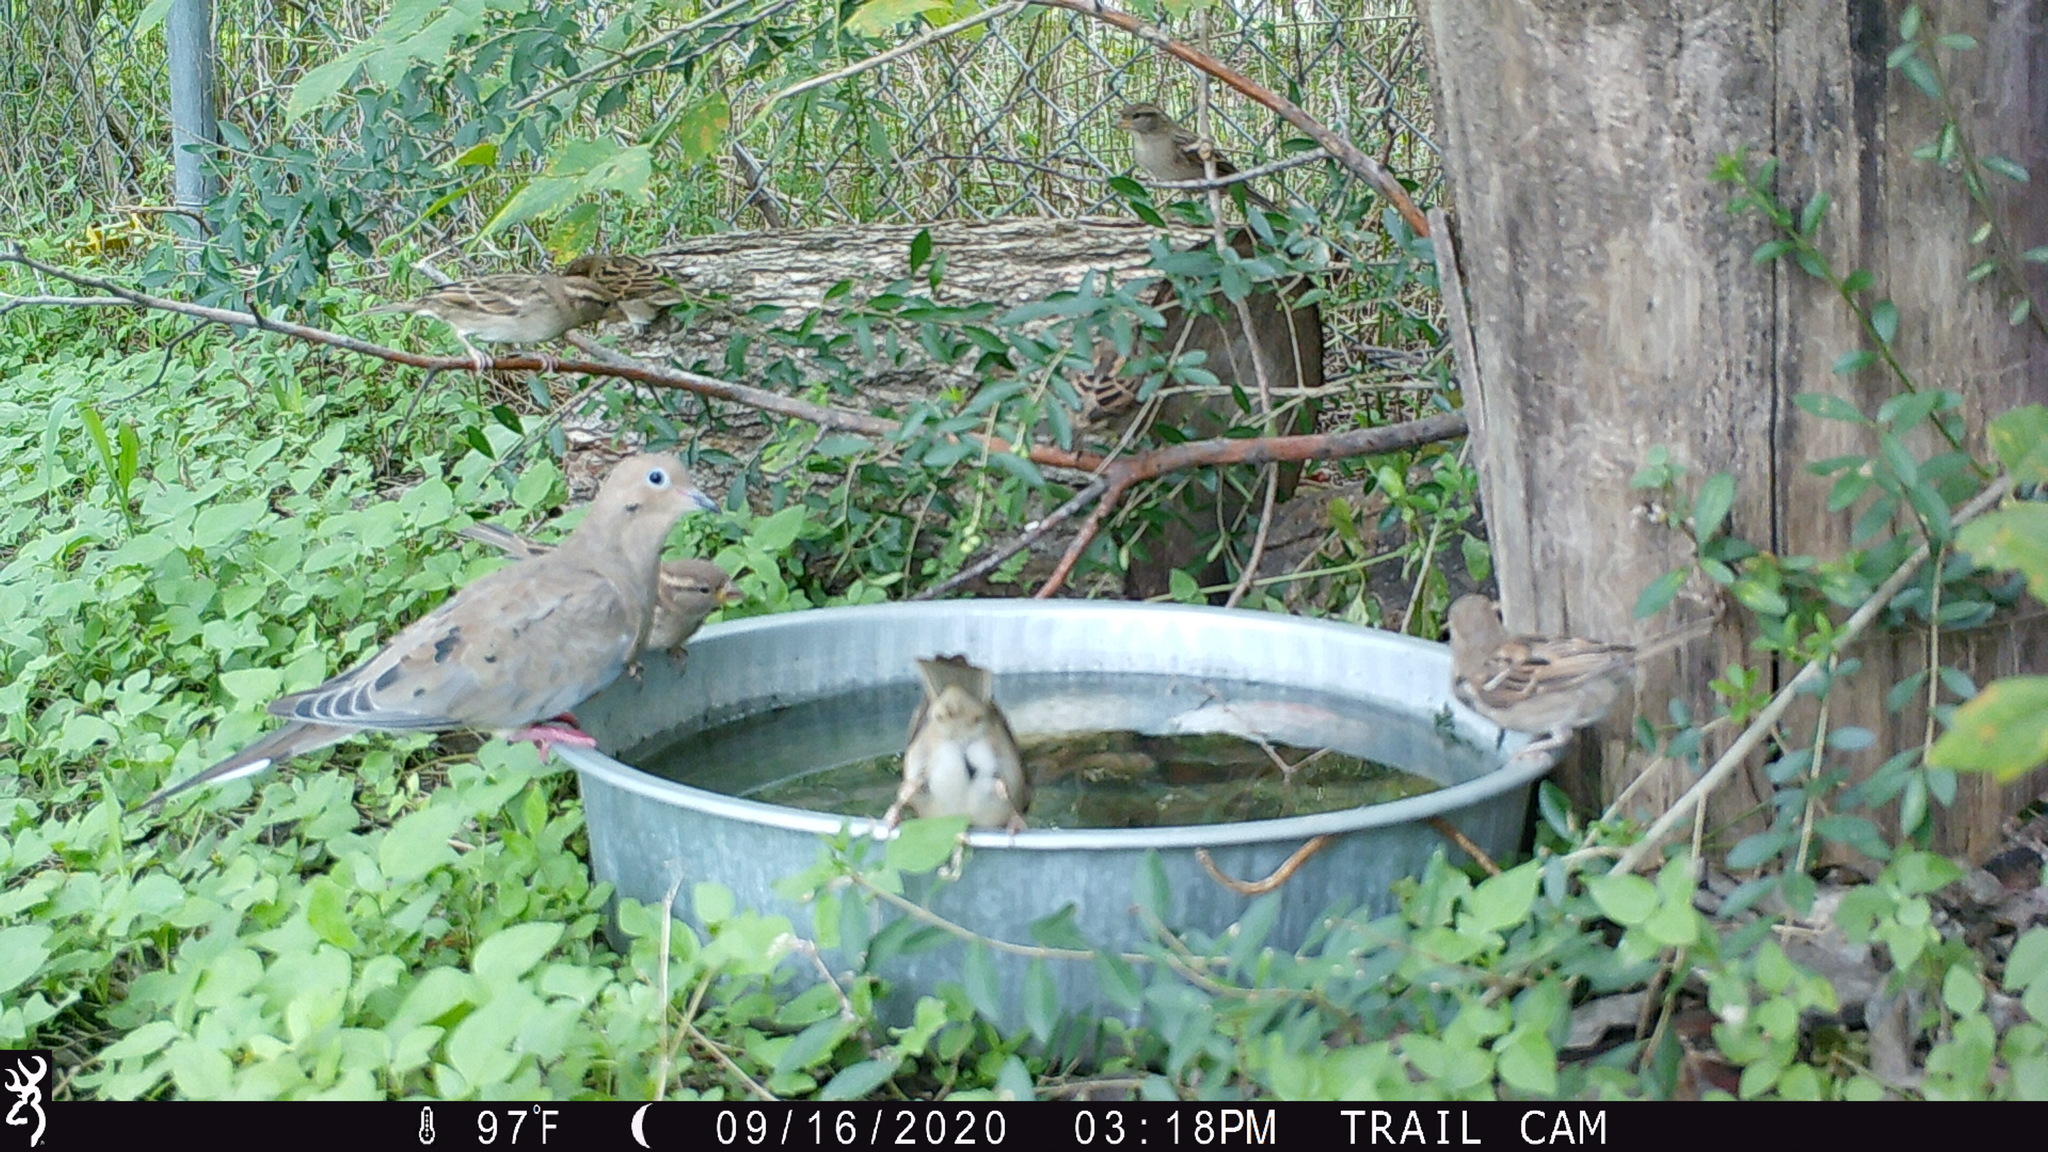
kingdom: Animalia
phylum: Chordata
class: Aves
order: Columbiformes
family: Columbidae
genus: Zenaida
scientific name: Zenaida macroura
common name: Mourning dove
